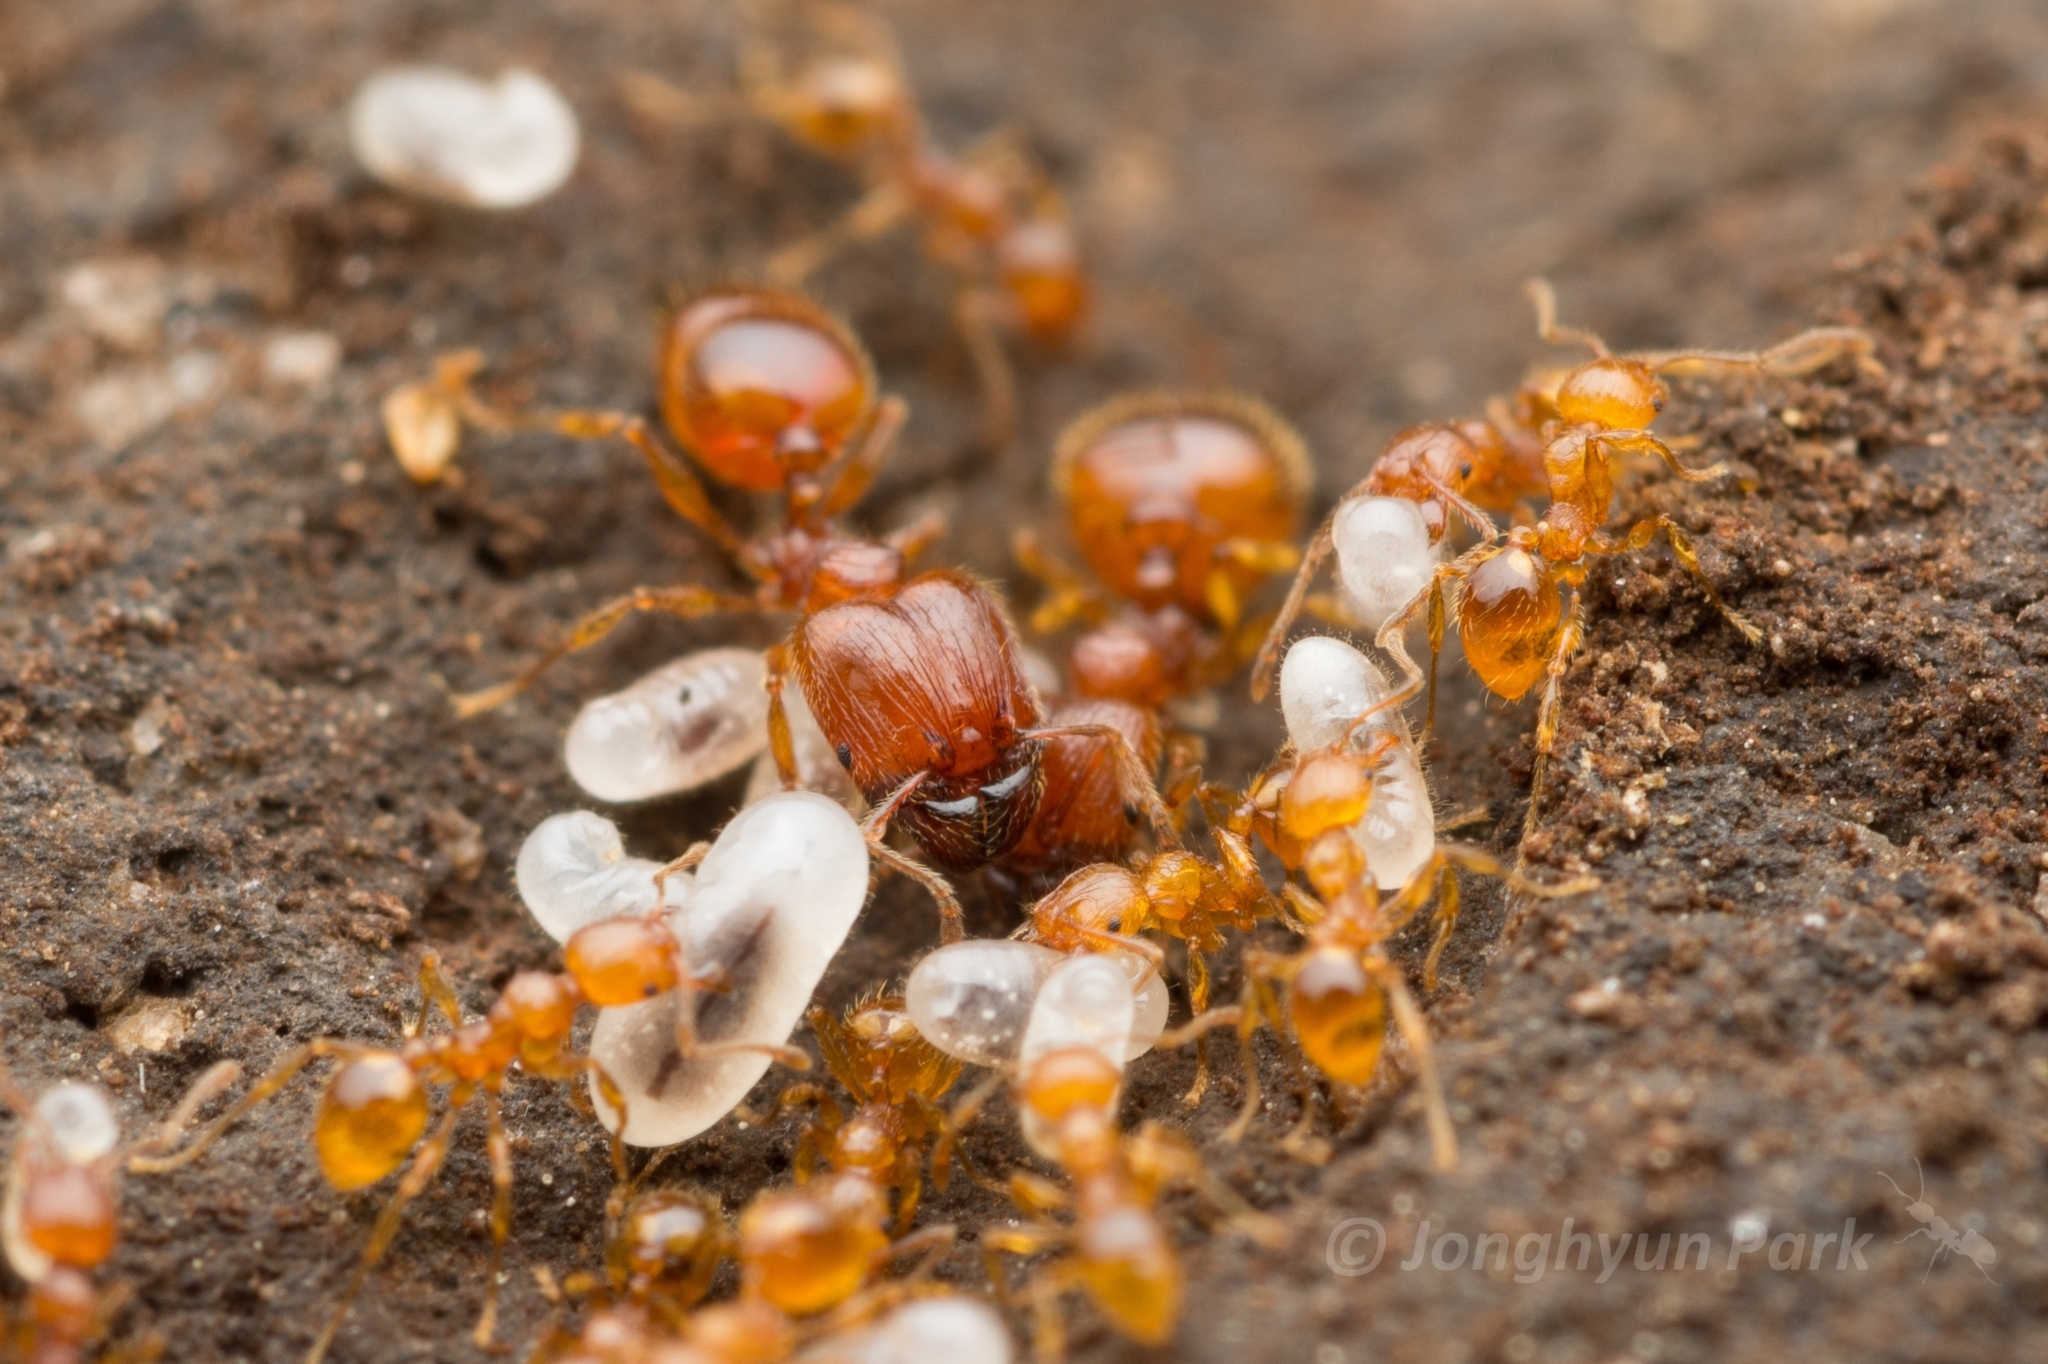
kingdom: Animalia
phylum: Arthropoda
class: Insecta
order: Hymenoptera
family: Formicidae
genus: Pheidole
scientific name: Pheidole fervida
